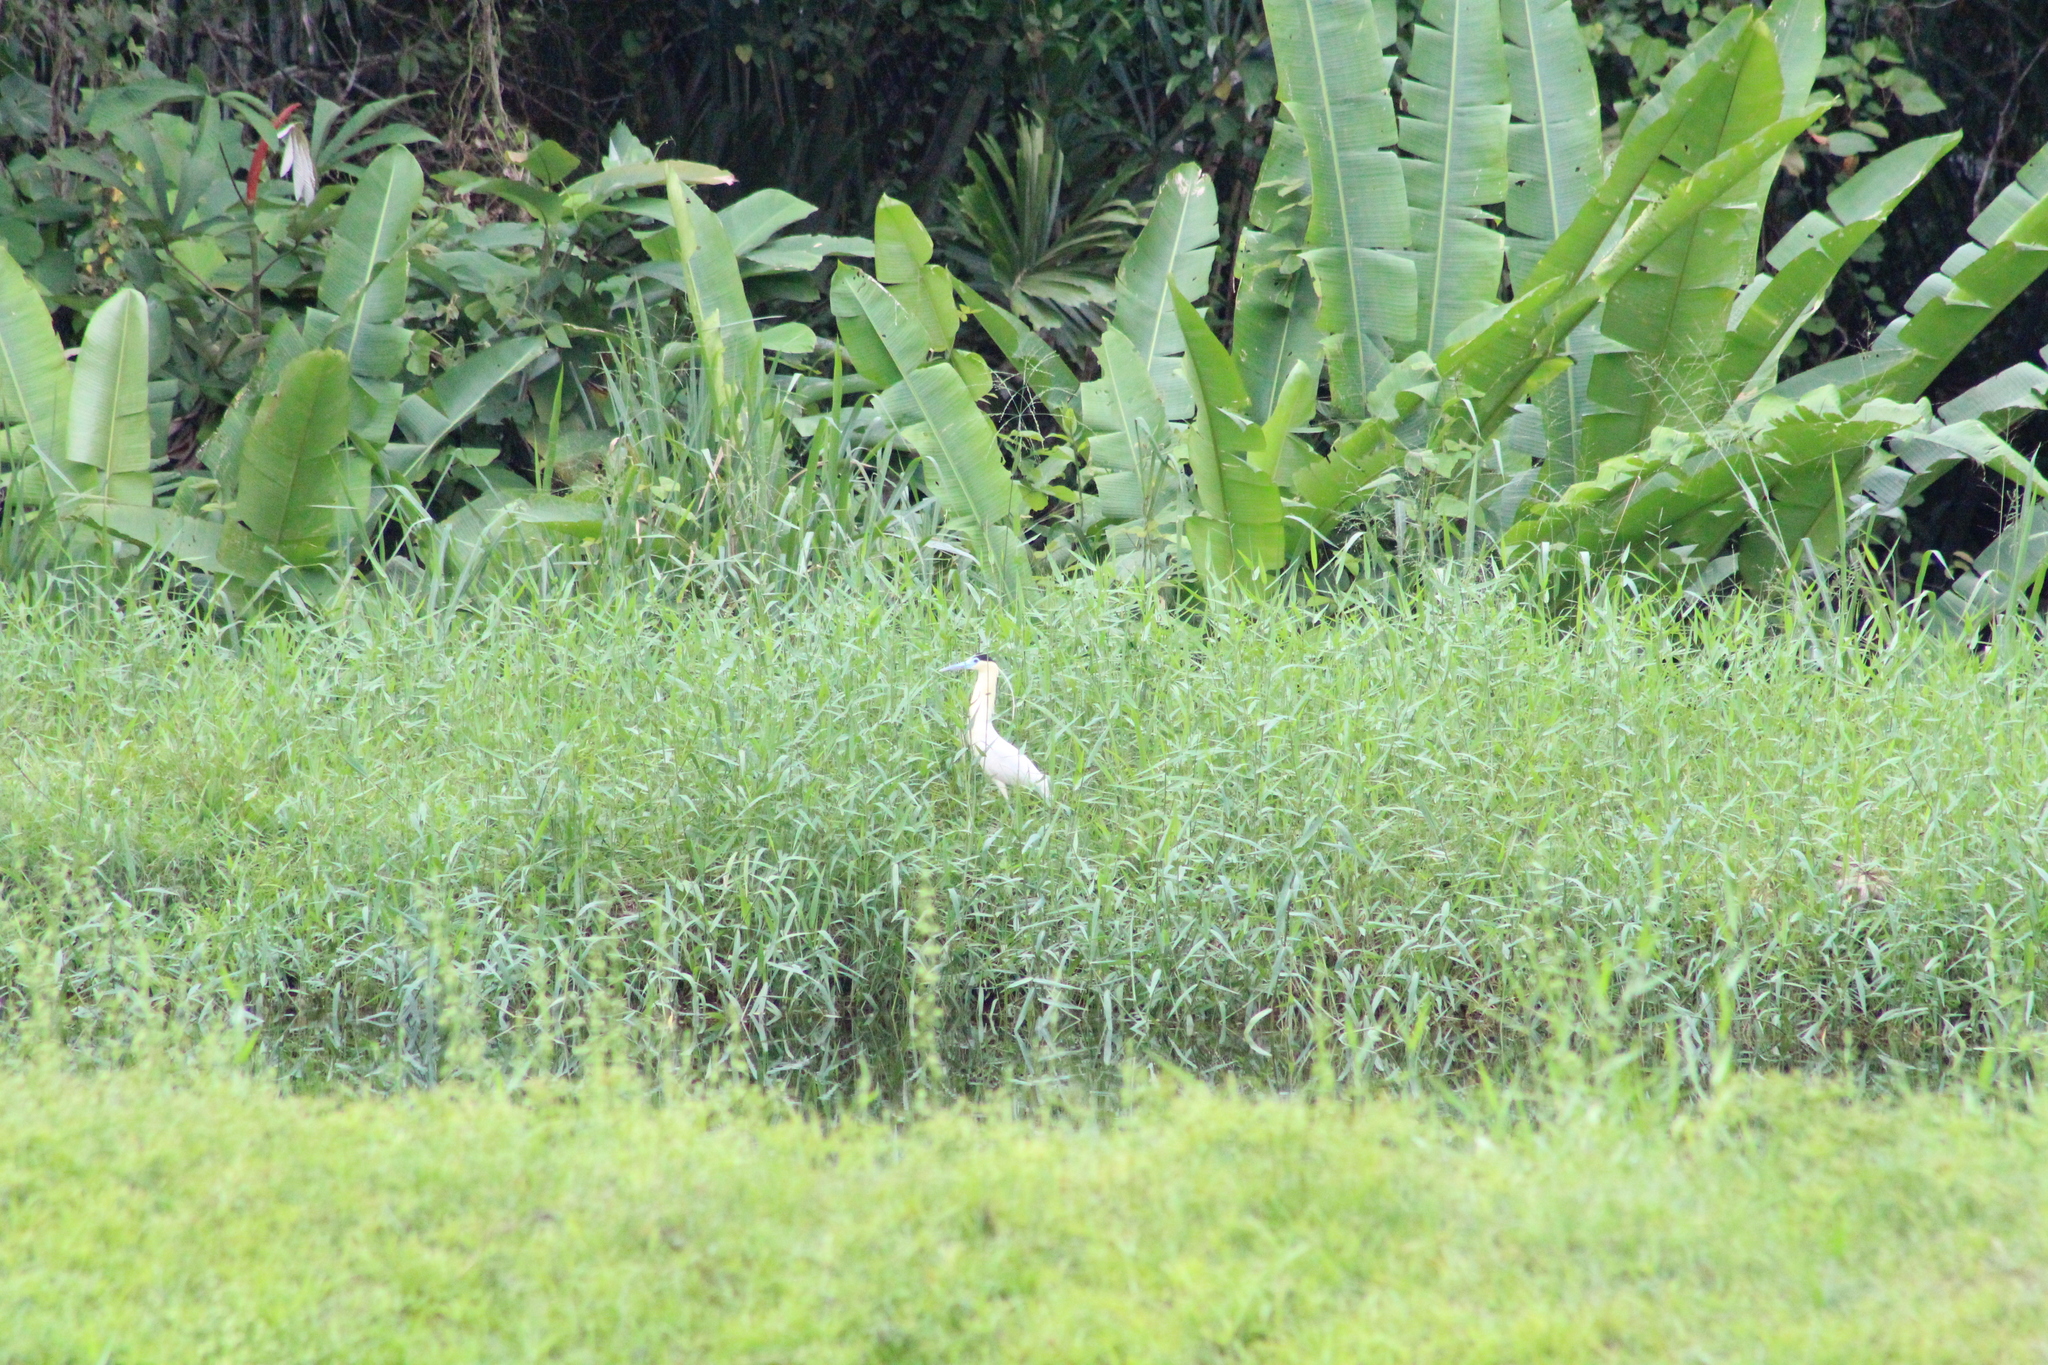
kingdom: Animalia
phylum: Chordata
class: Aves
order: Pelecaniformes
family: Ardeidae
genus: Pilherodius
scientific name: Pilherodius pileatus
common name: Capped heron
